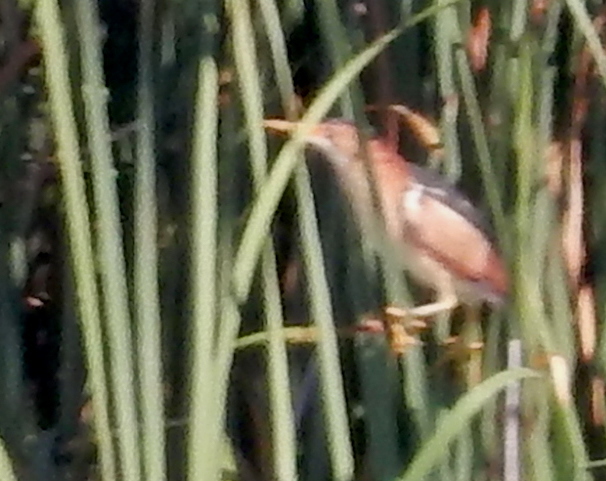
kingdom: Animalia
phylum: Chordata
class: Aves
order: Pelecaniformes
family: Ardeidae
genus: Ixobrychus
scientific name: Ixobrychus exilis
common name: Least bittern
